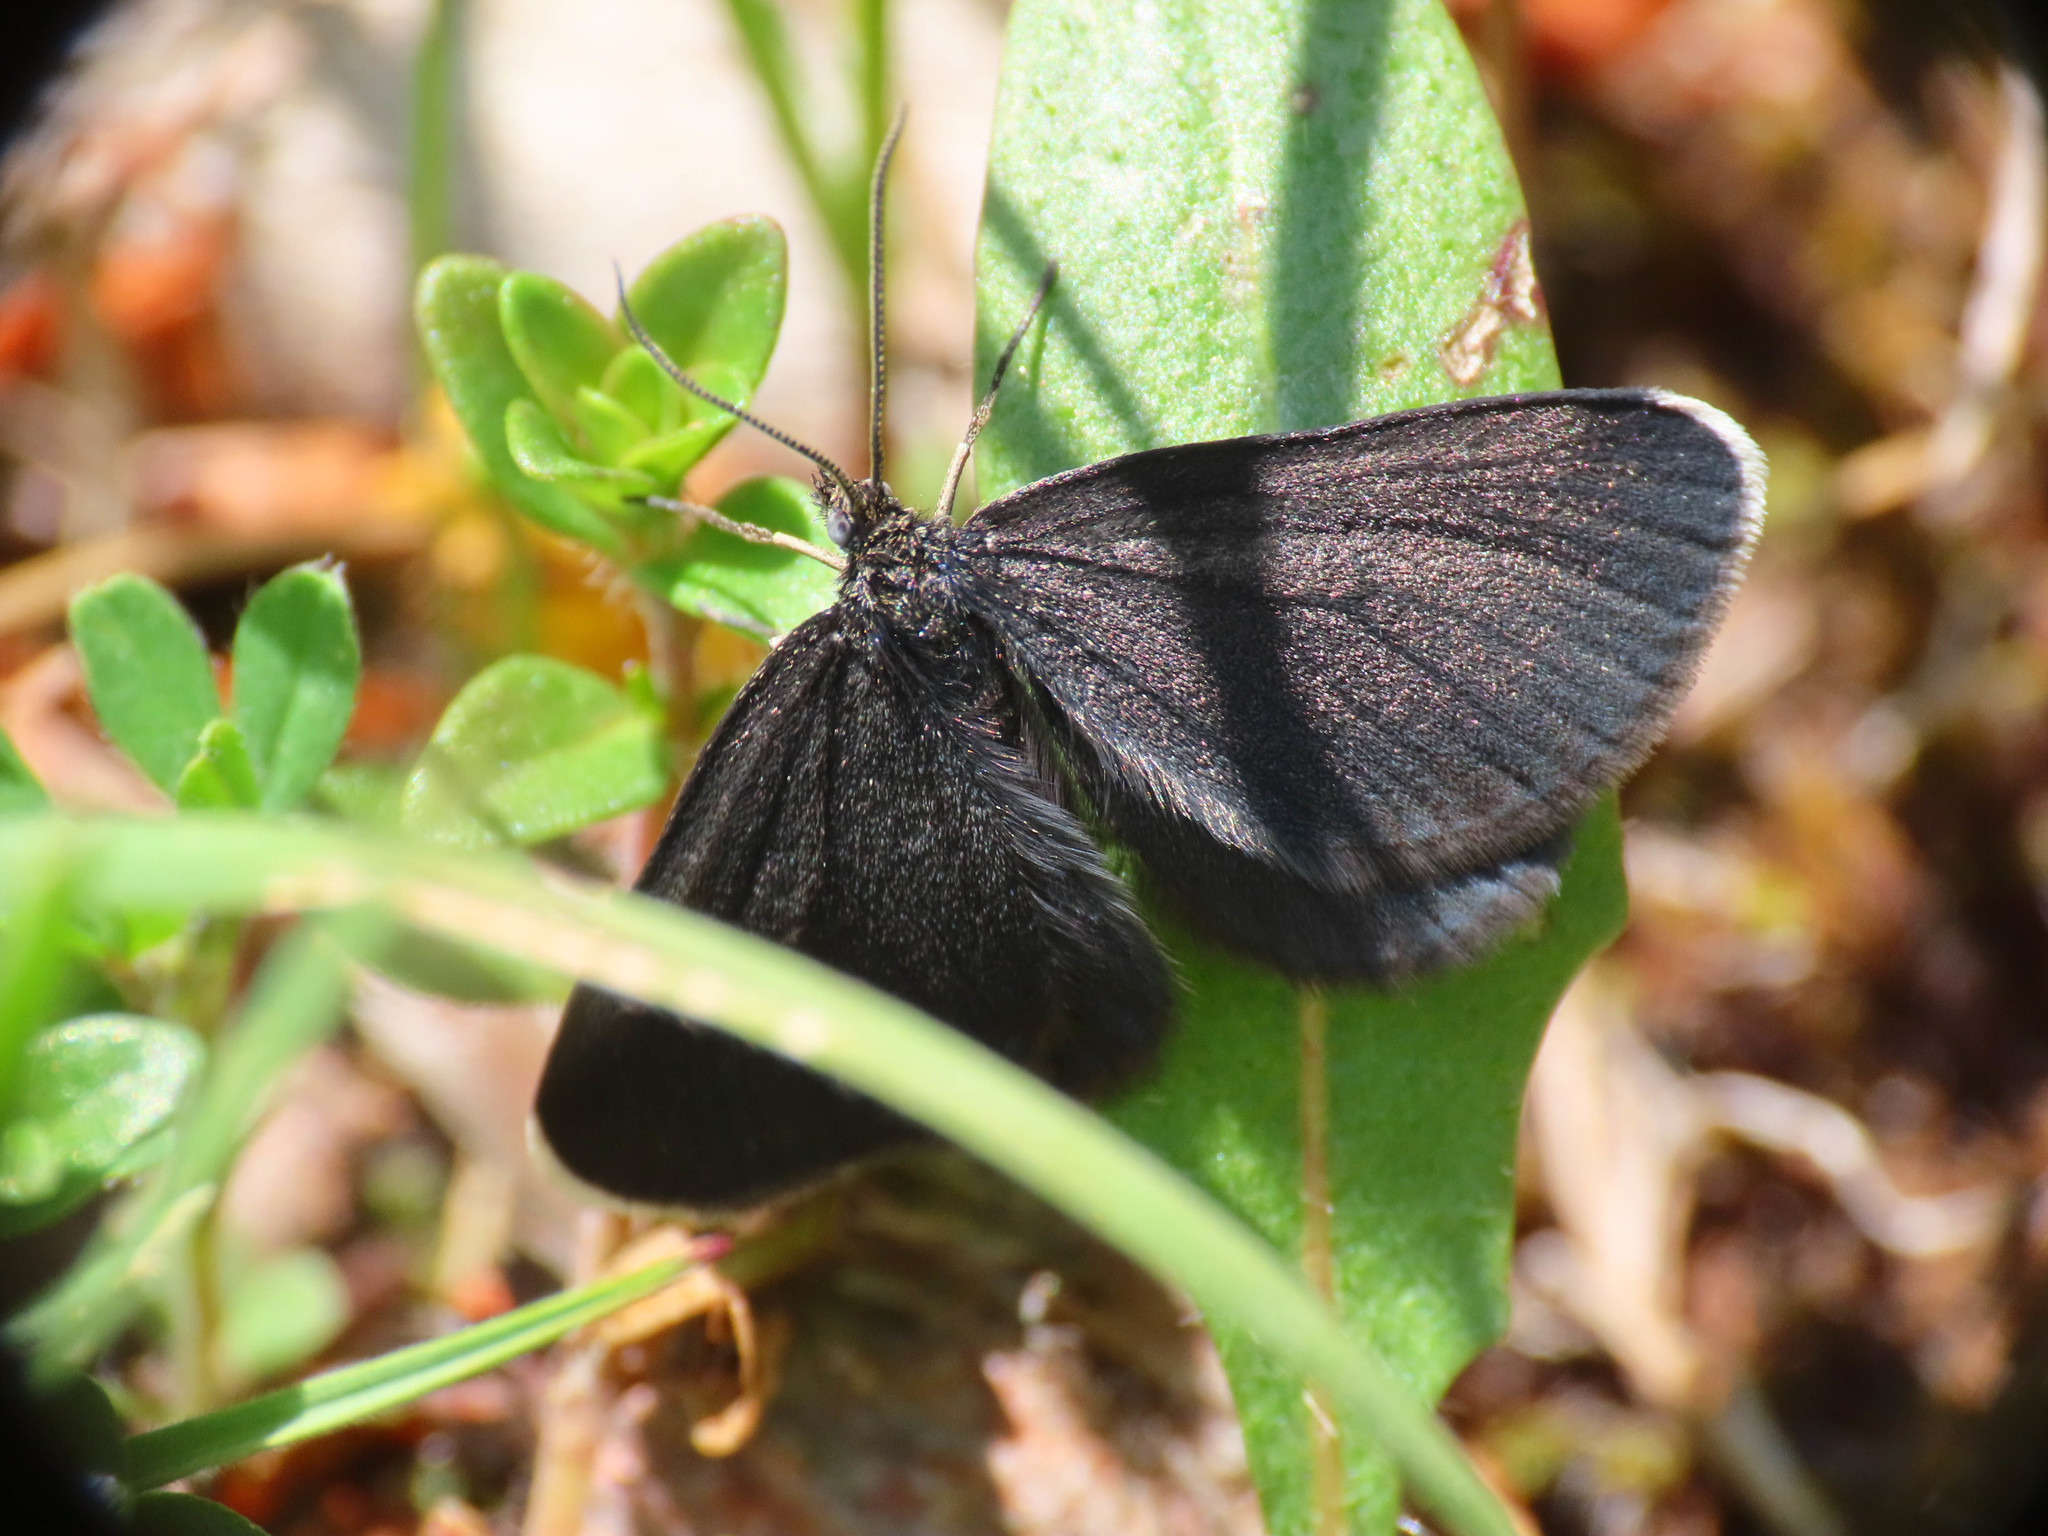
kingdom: Animalia
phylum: Arthropoda
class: Insecta
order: Lepidoptera
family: Geometridae
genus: Odezia
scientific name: Odezia atrata
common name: Chimney sweeper
